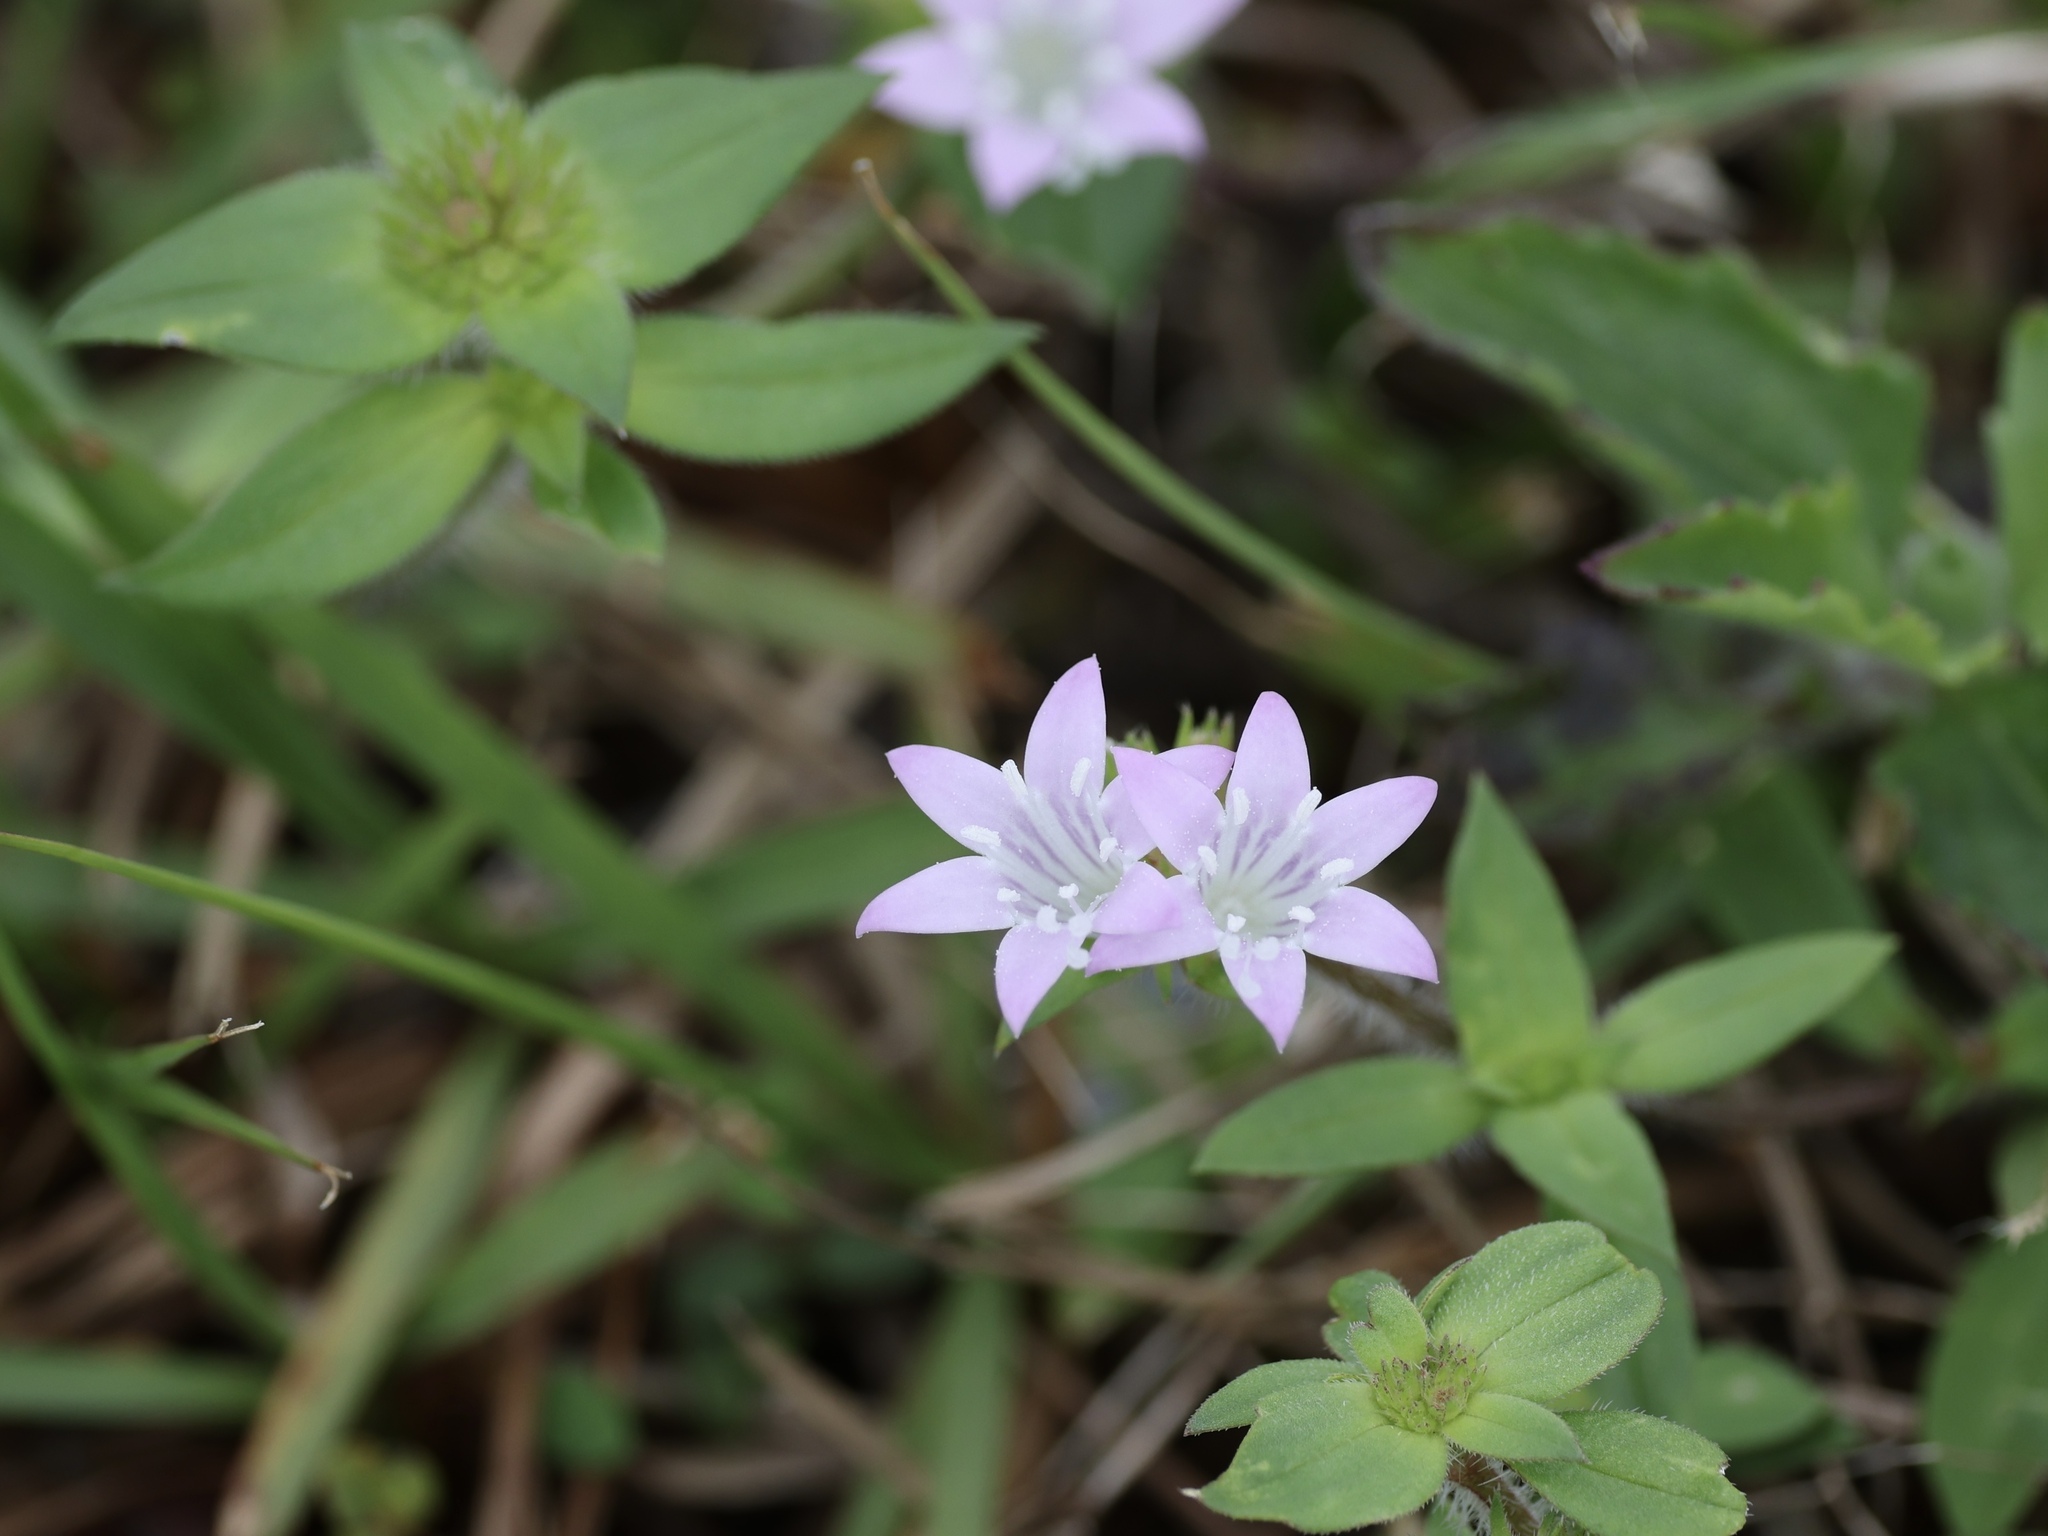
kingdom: Plantae
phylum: Tracheophyta
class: Magnoliopsida
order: Gentianales
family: Rubiaceae
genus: Richardia
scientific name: Richardia grandiflora
